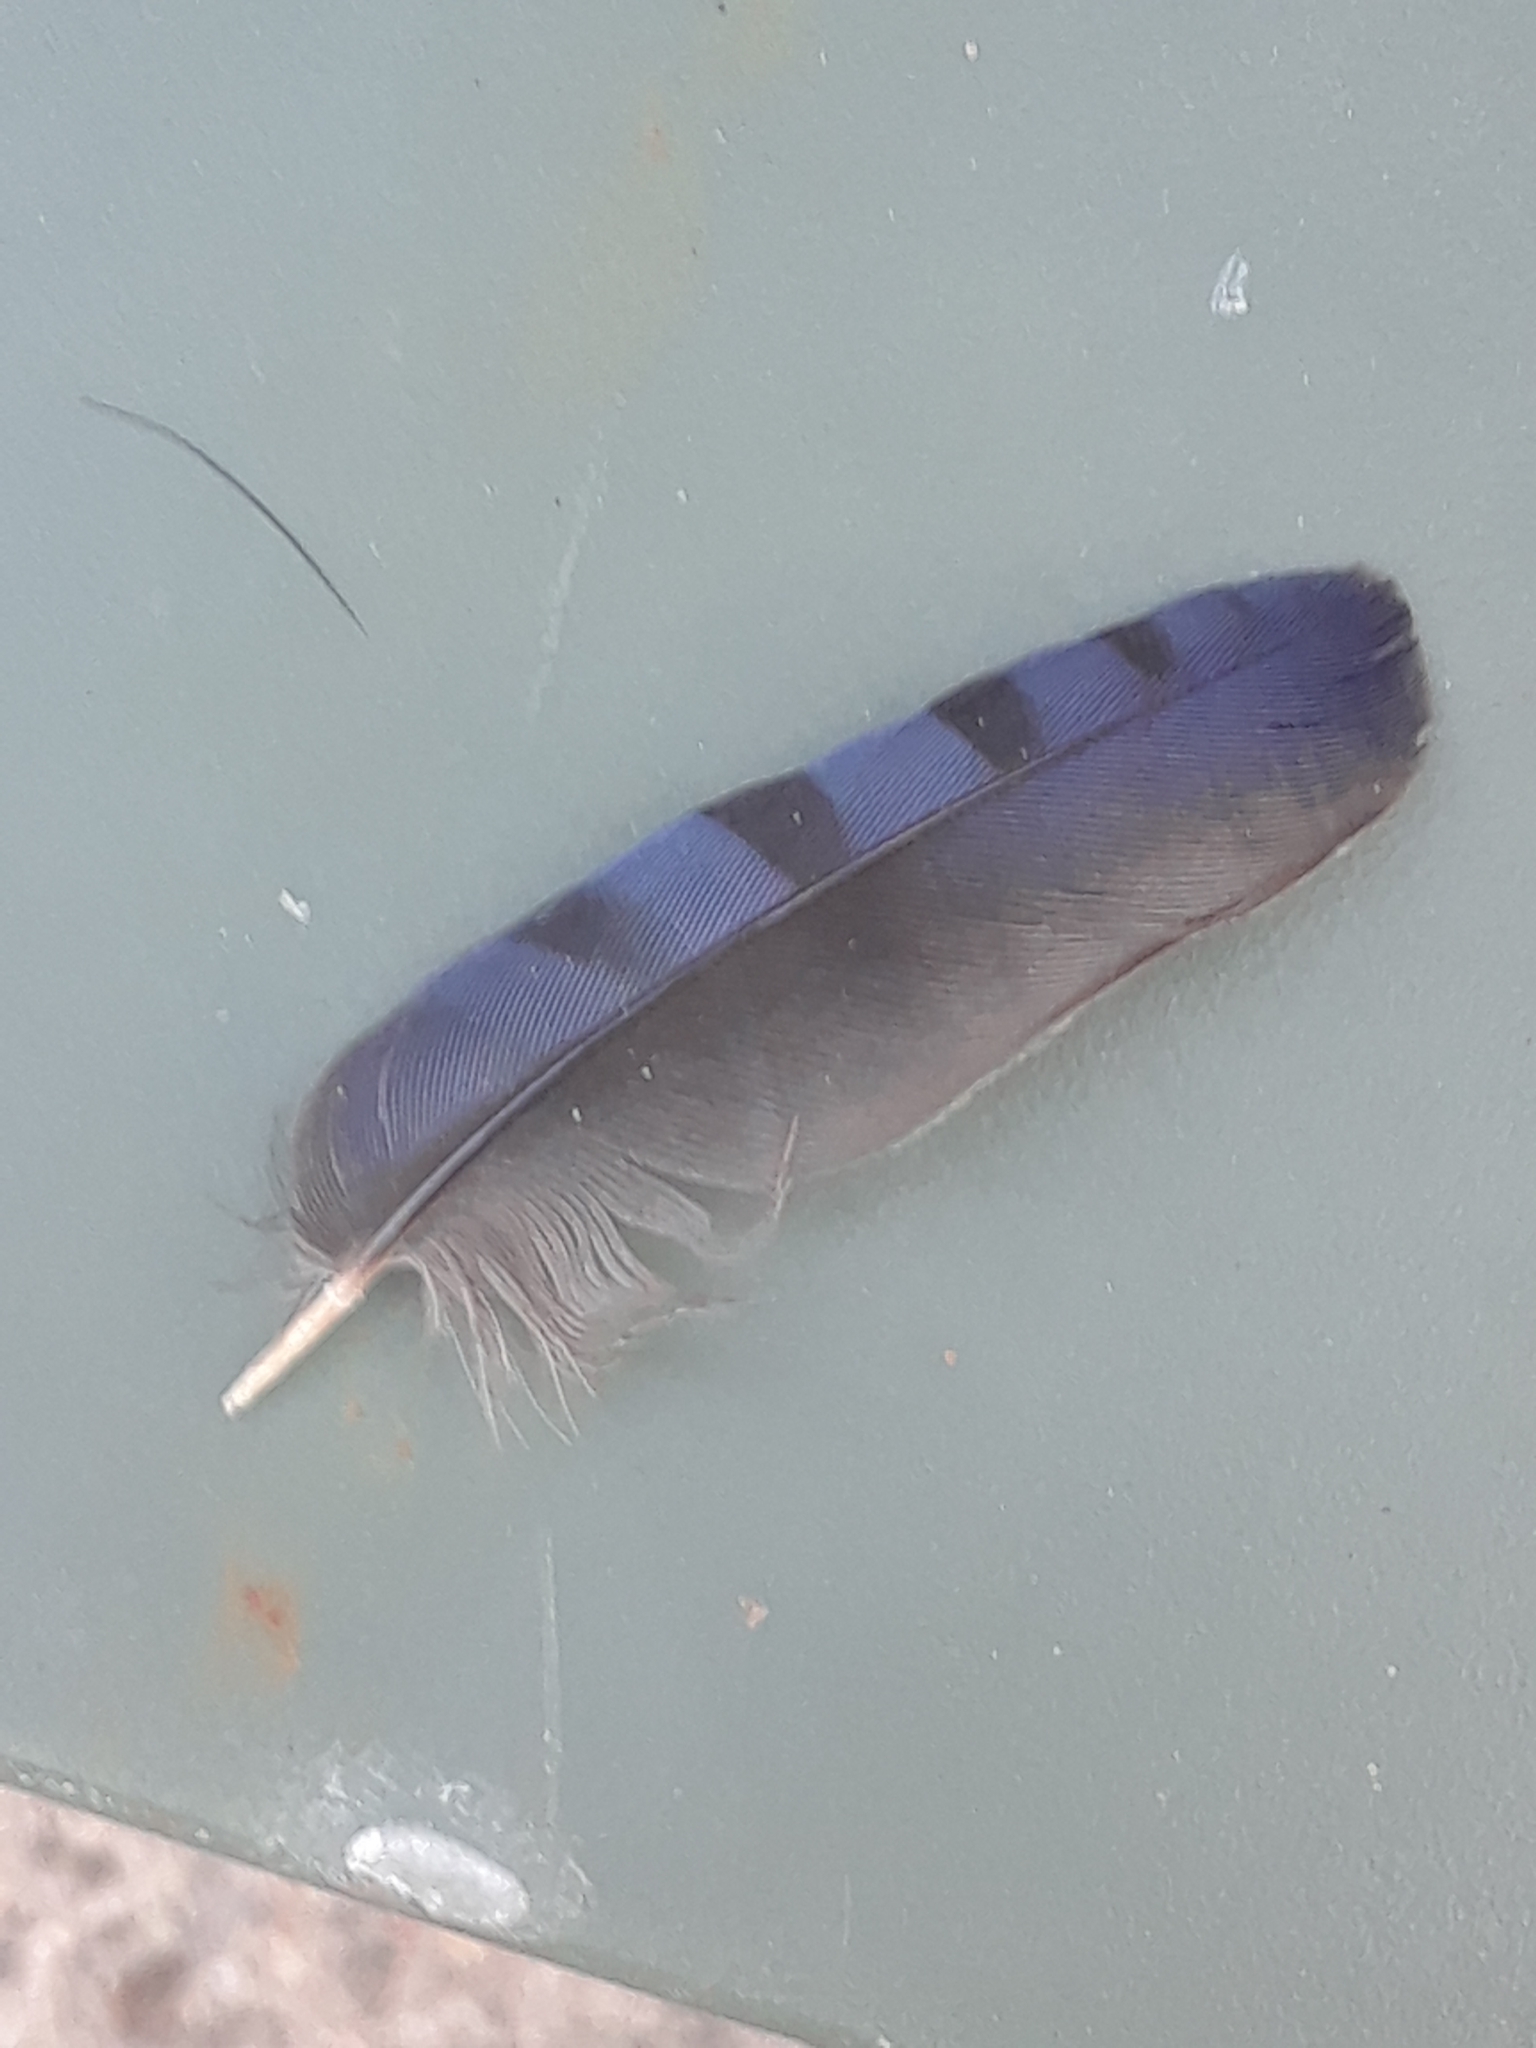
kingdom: Animalia
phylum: Chordata
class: Aves
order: Passeriformes
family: Corvidae
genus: Cyanocitta
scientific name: Cyanocitta cristata
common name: Blue jay
